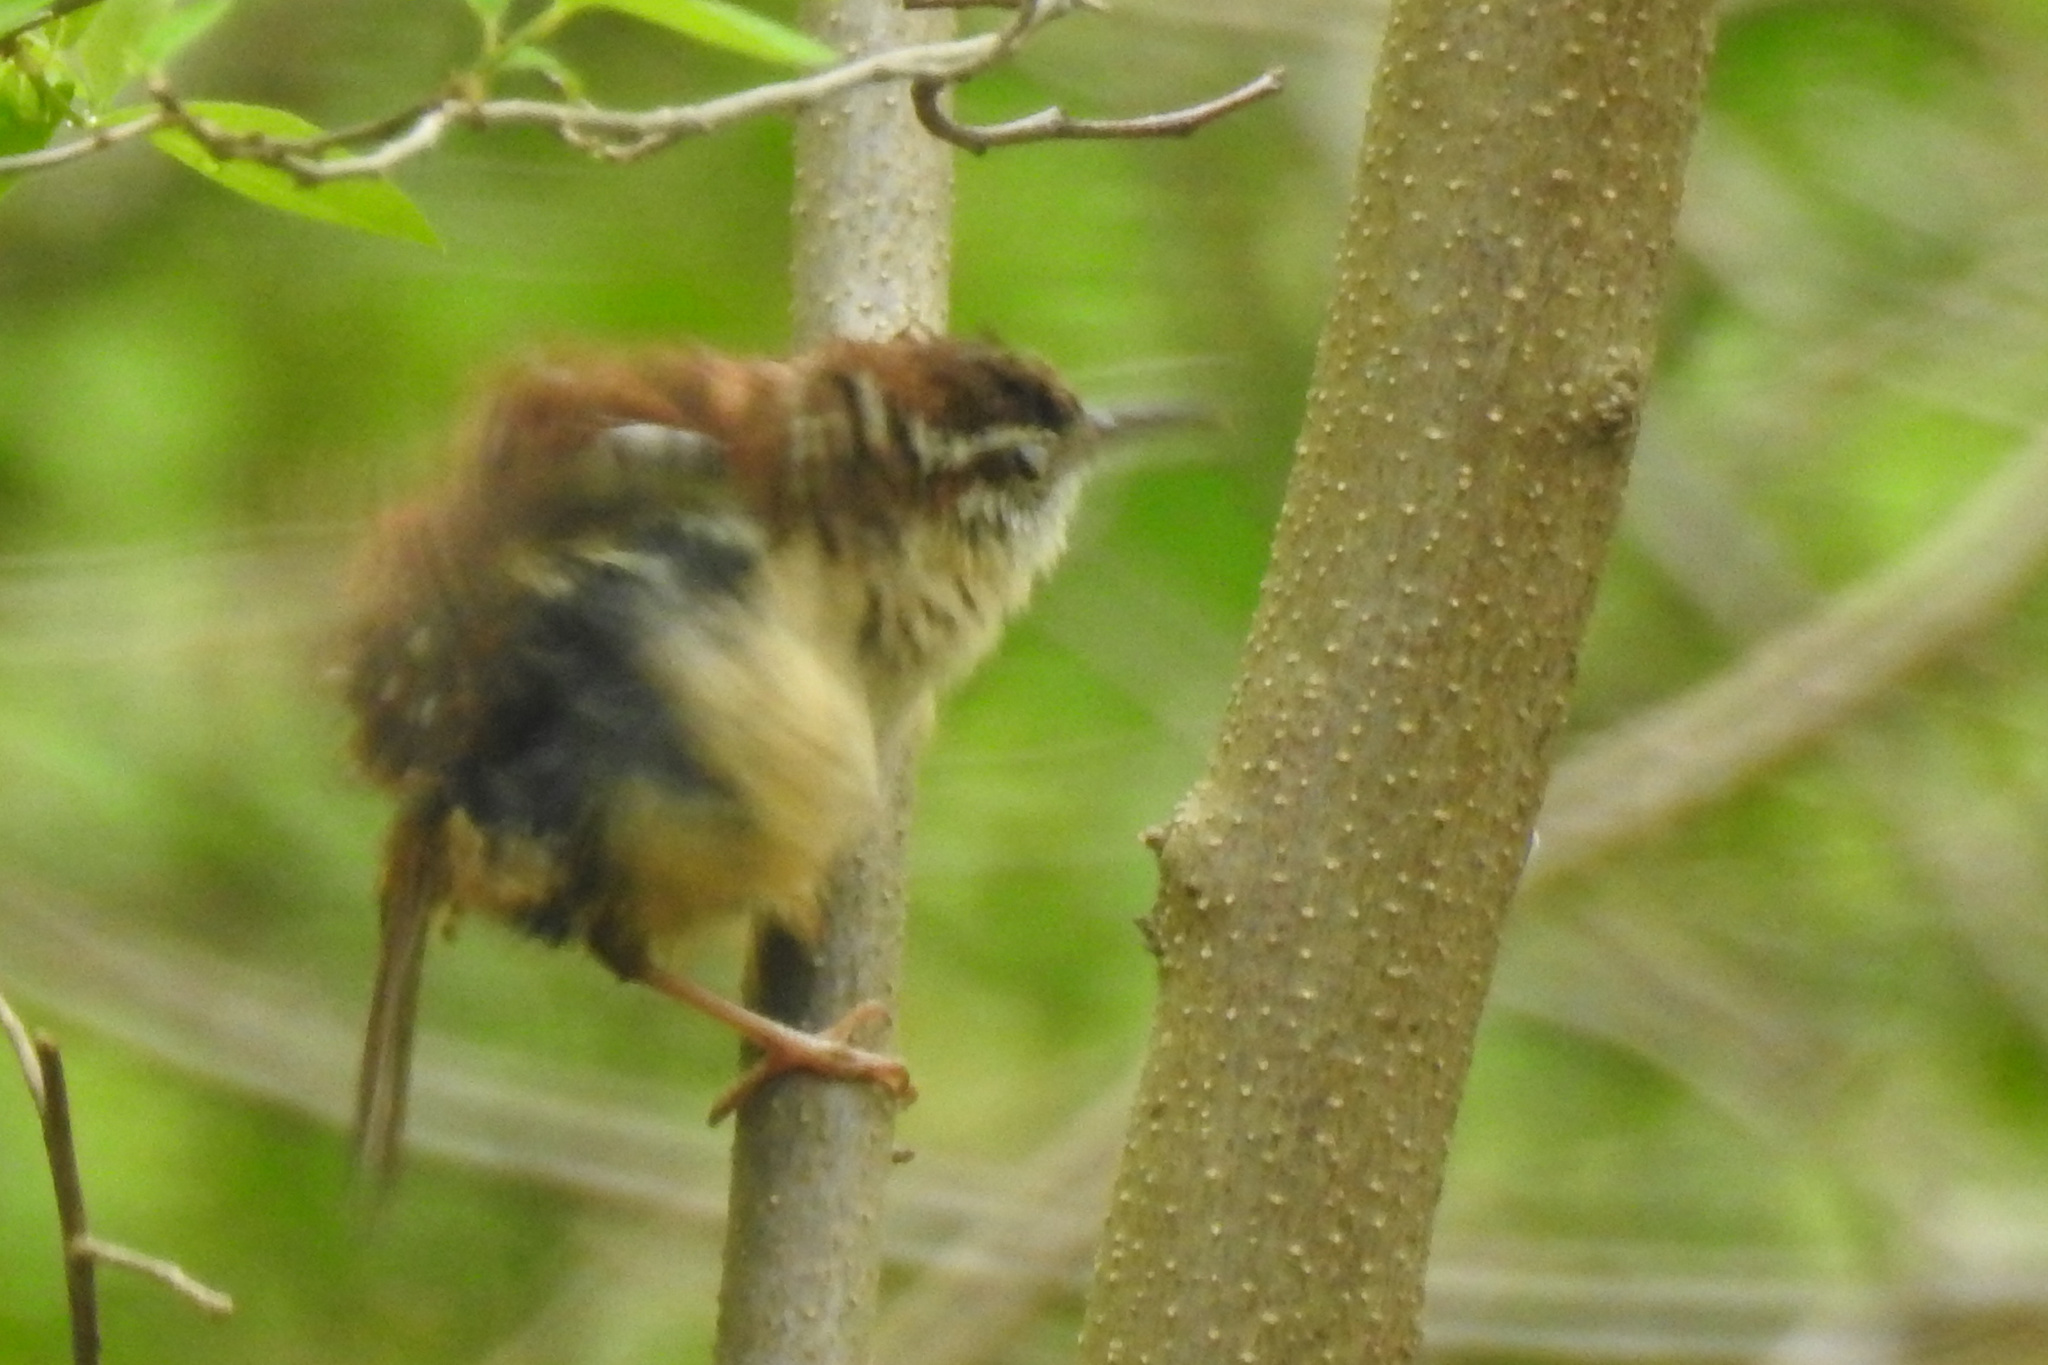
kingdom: Animalia
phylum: Chordata
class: Aves
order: Passeriformes
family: Troglodytidae
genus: Thryothorus
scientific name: Thryothorus ludovicianus
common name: Carolina wren
